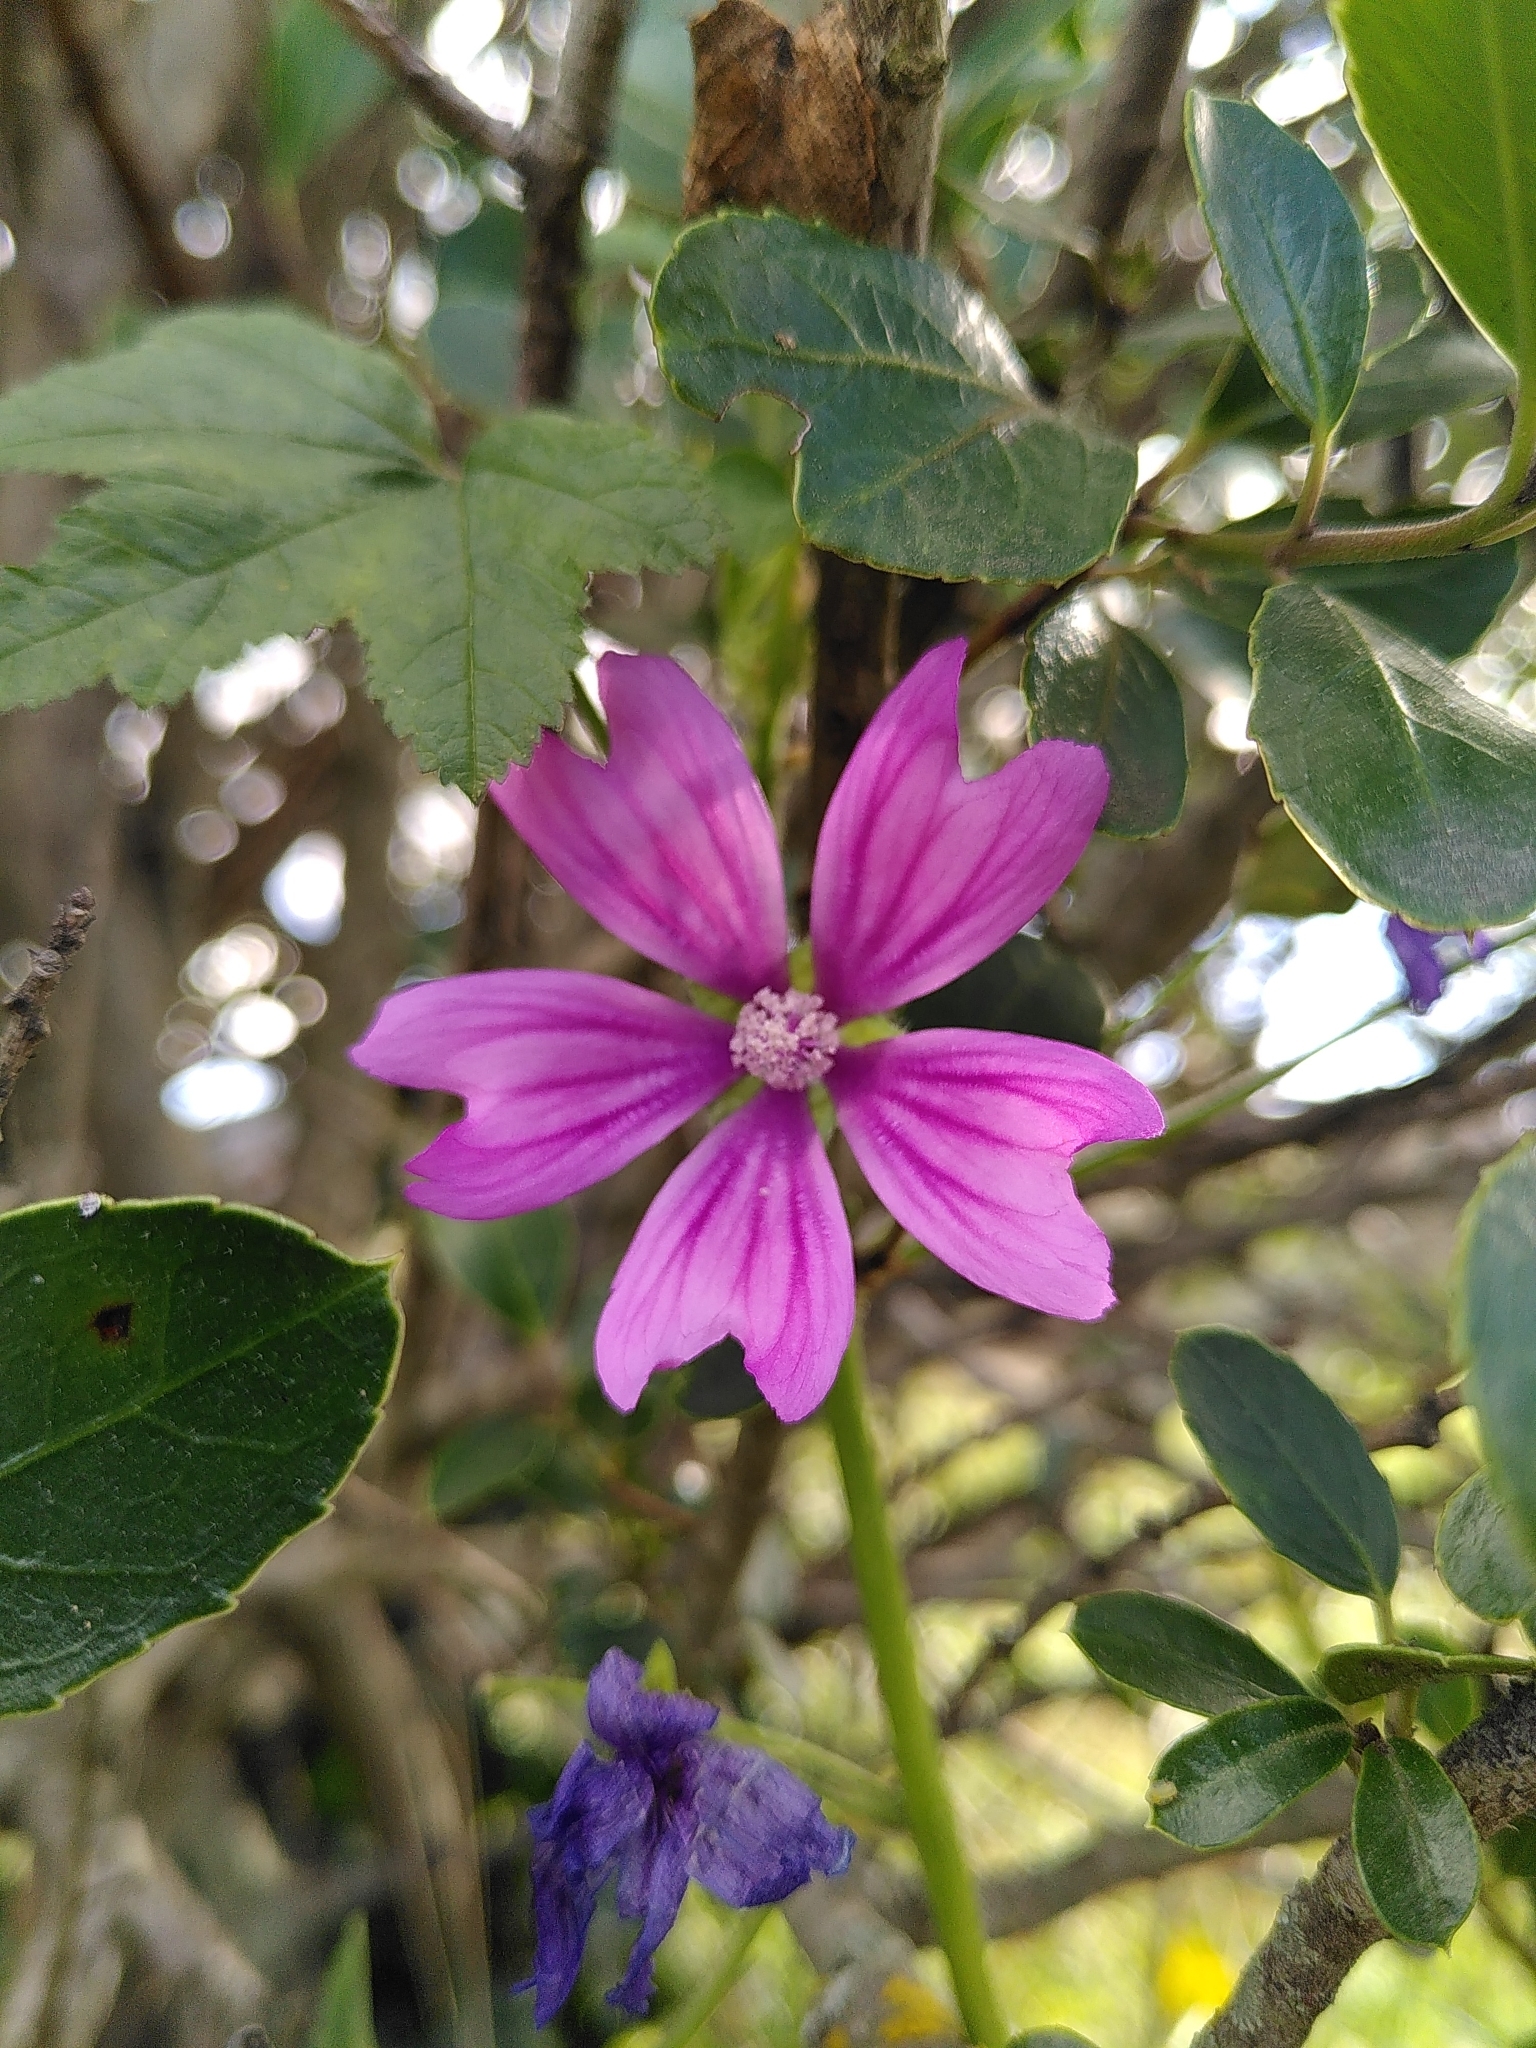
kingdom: Plantae
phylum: Tracheophyta
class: Magnoliopsida
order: Malvales
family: Malvaceae
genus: Malva
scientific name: Malva sylvestris
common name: Common mallow
